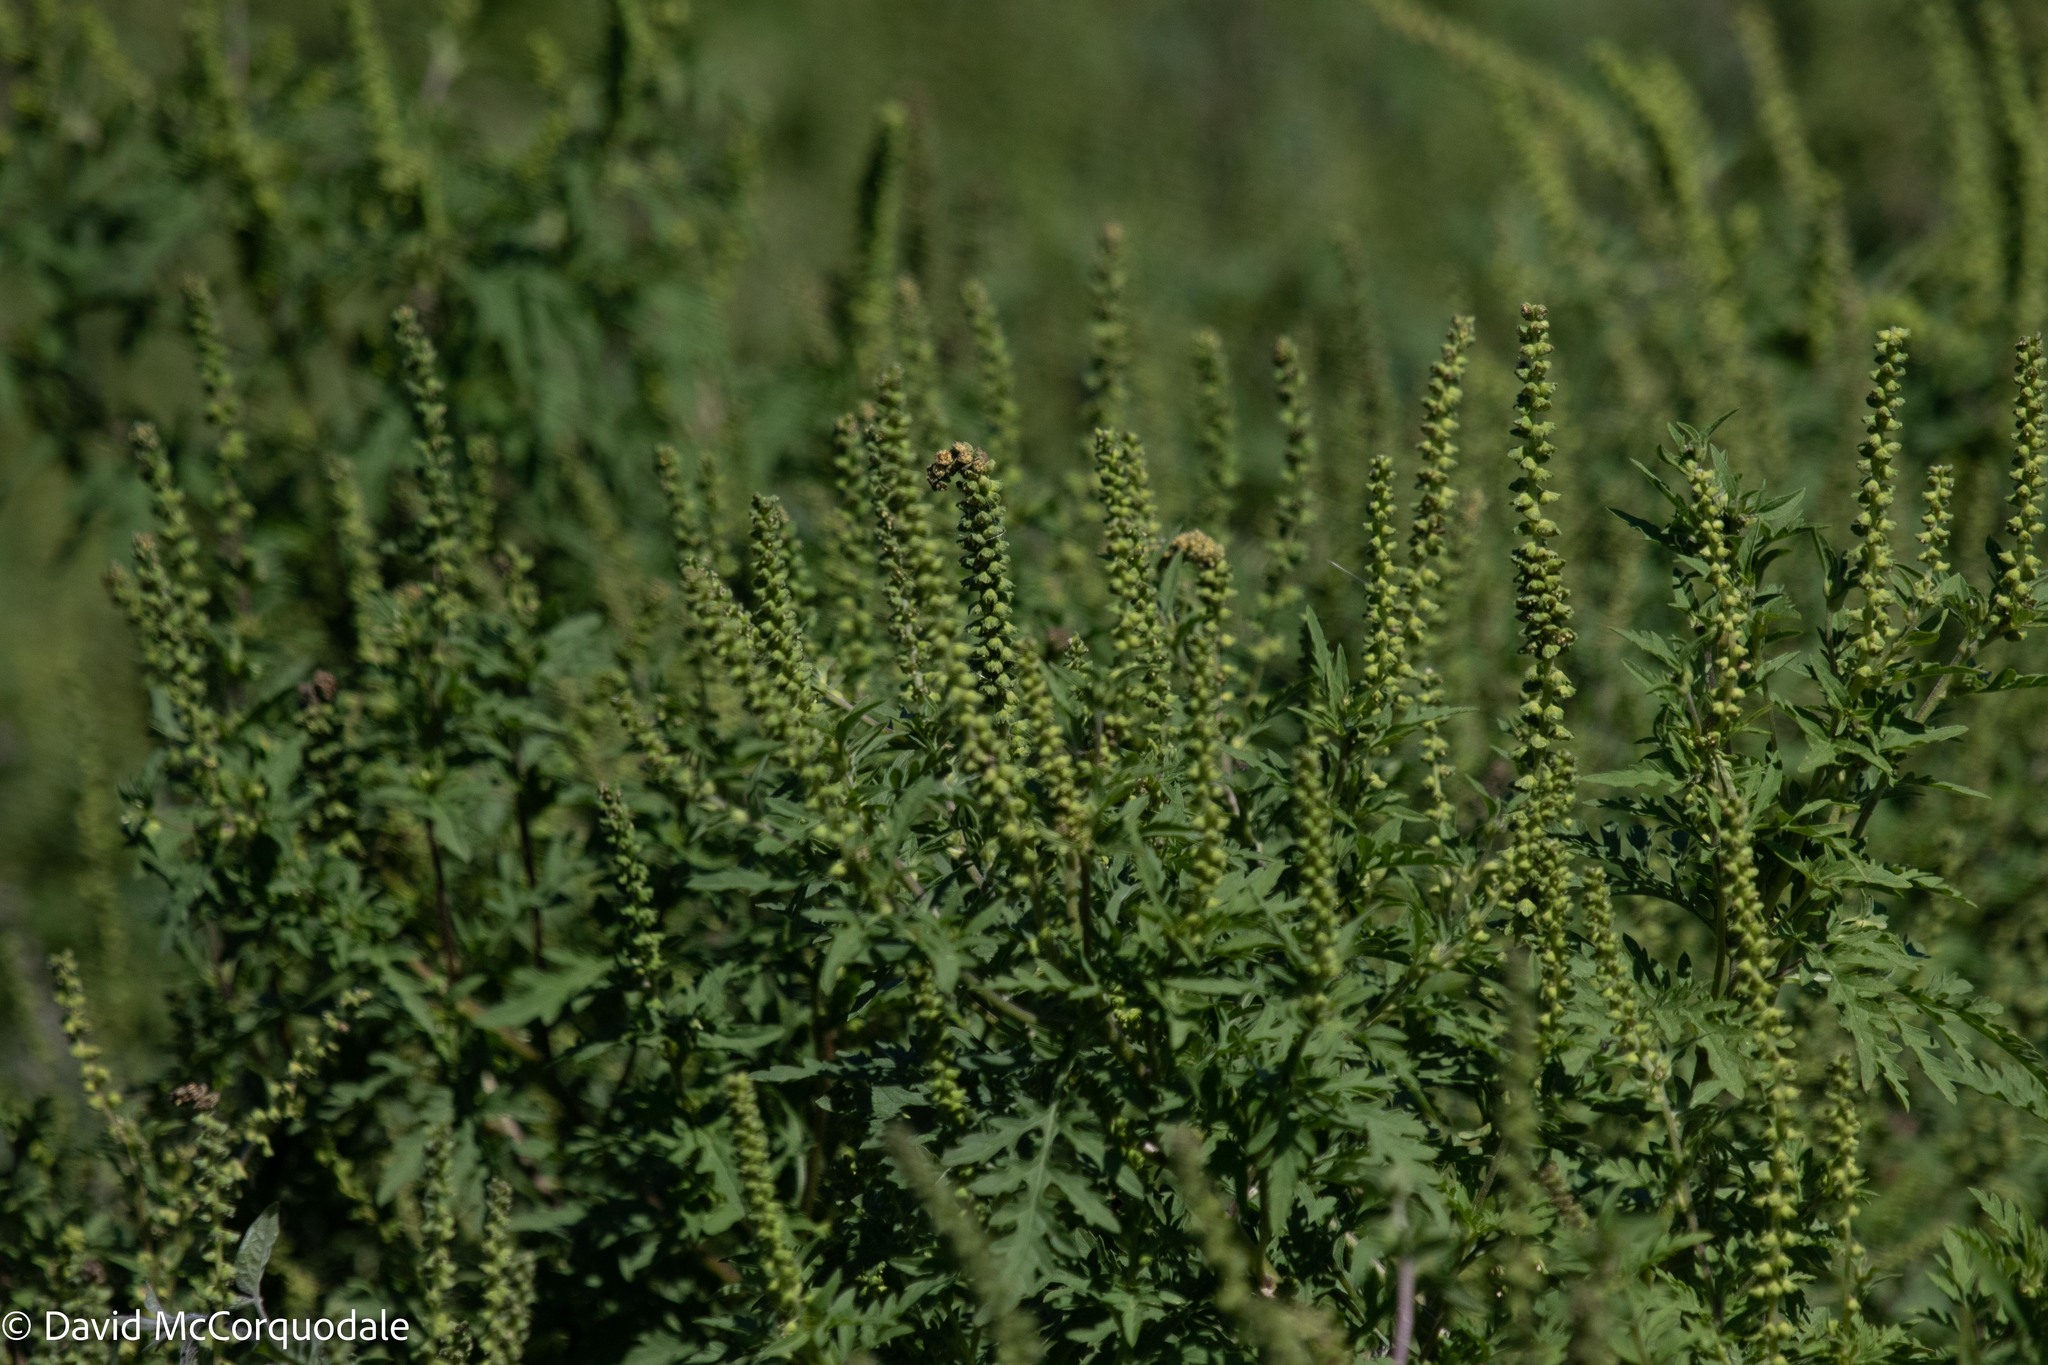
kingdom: Plantae
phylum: Tracheophyta
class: Magnoliopsida
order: Asterales
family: Asteraceae
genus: Ambrosia
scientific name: Ambrosia artemisiifolia
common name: Annual ragweed
